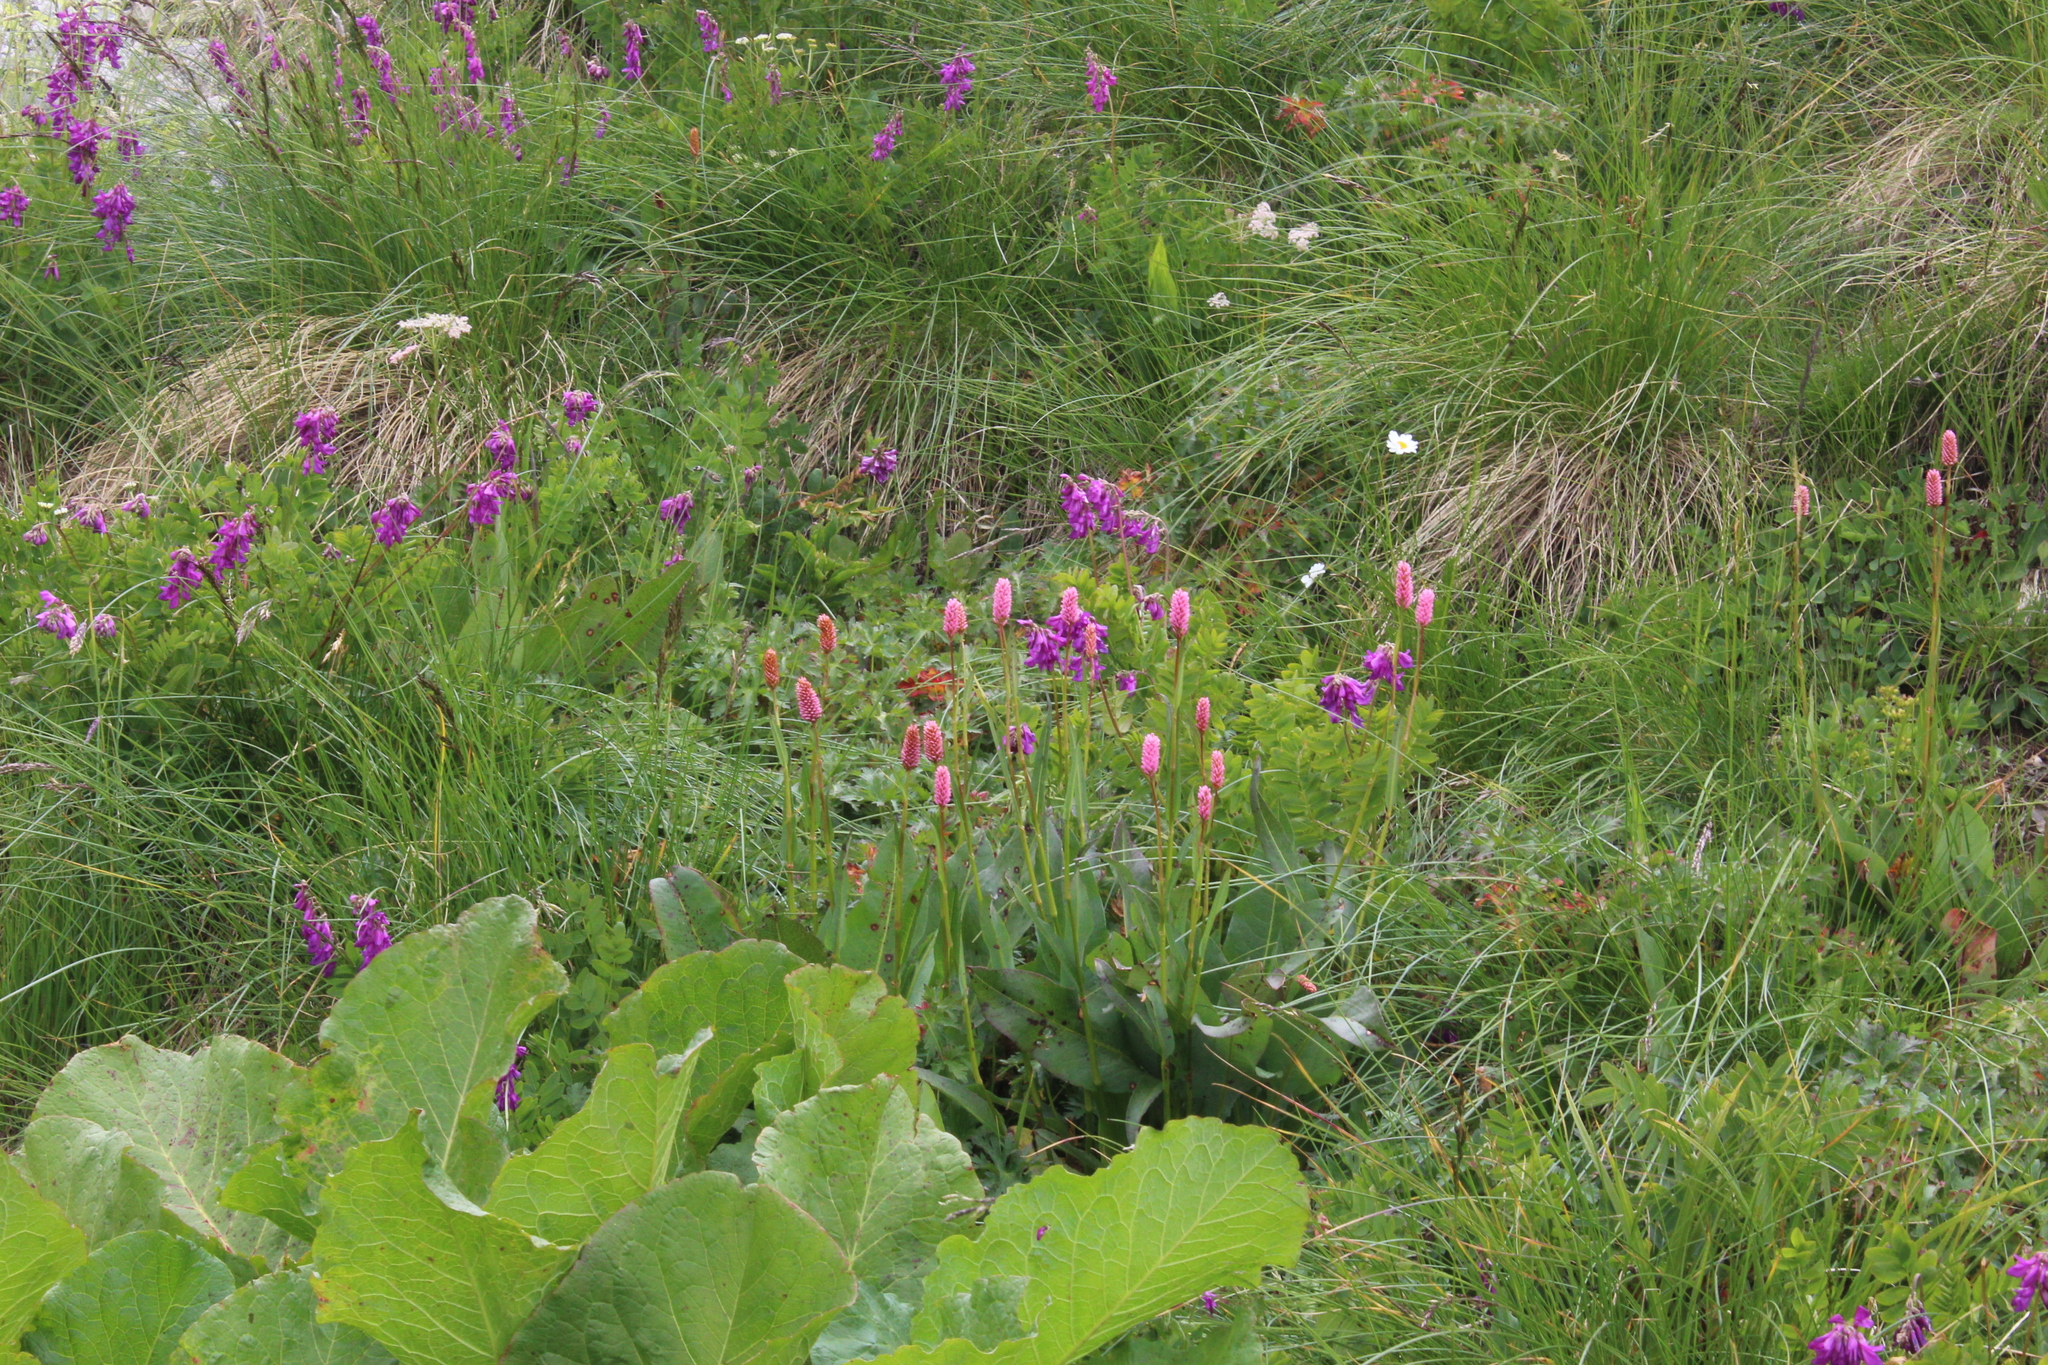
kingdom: Plantae
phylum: Tracheophyta
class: Magnoliopsida
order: Caryophyllales
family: Polygonaceae
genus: Bistorta
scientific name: Bistorta carnea
